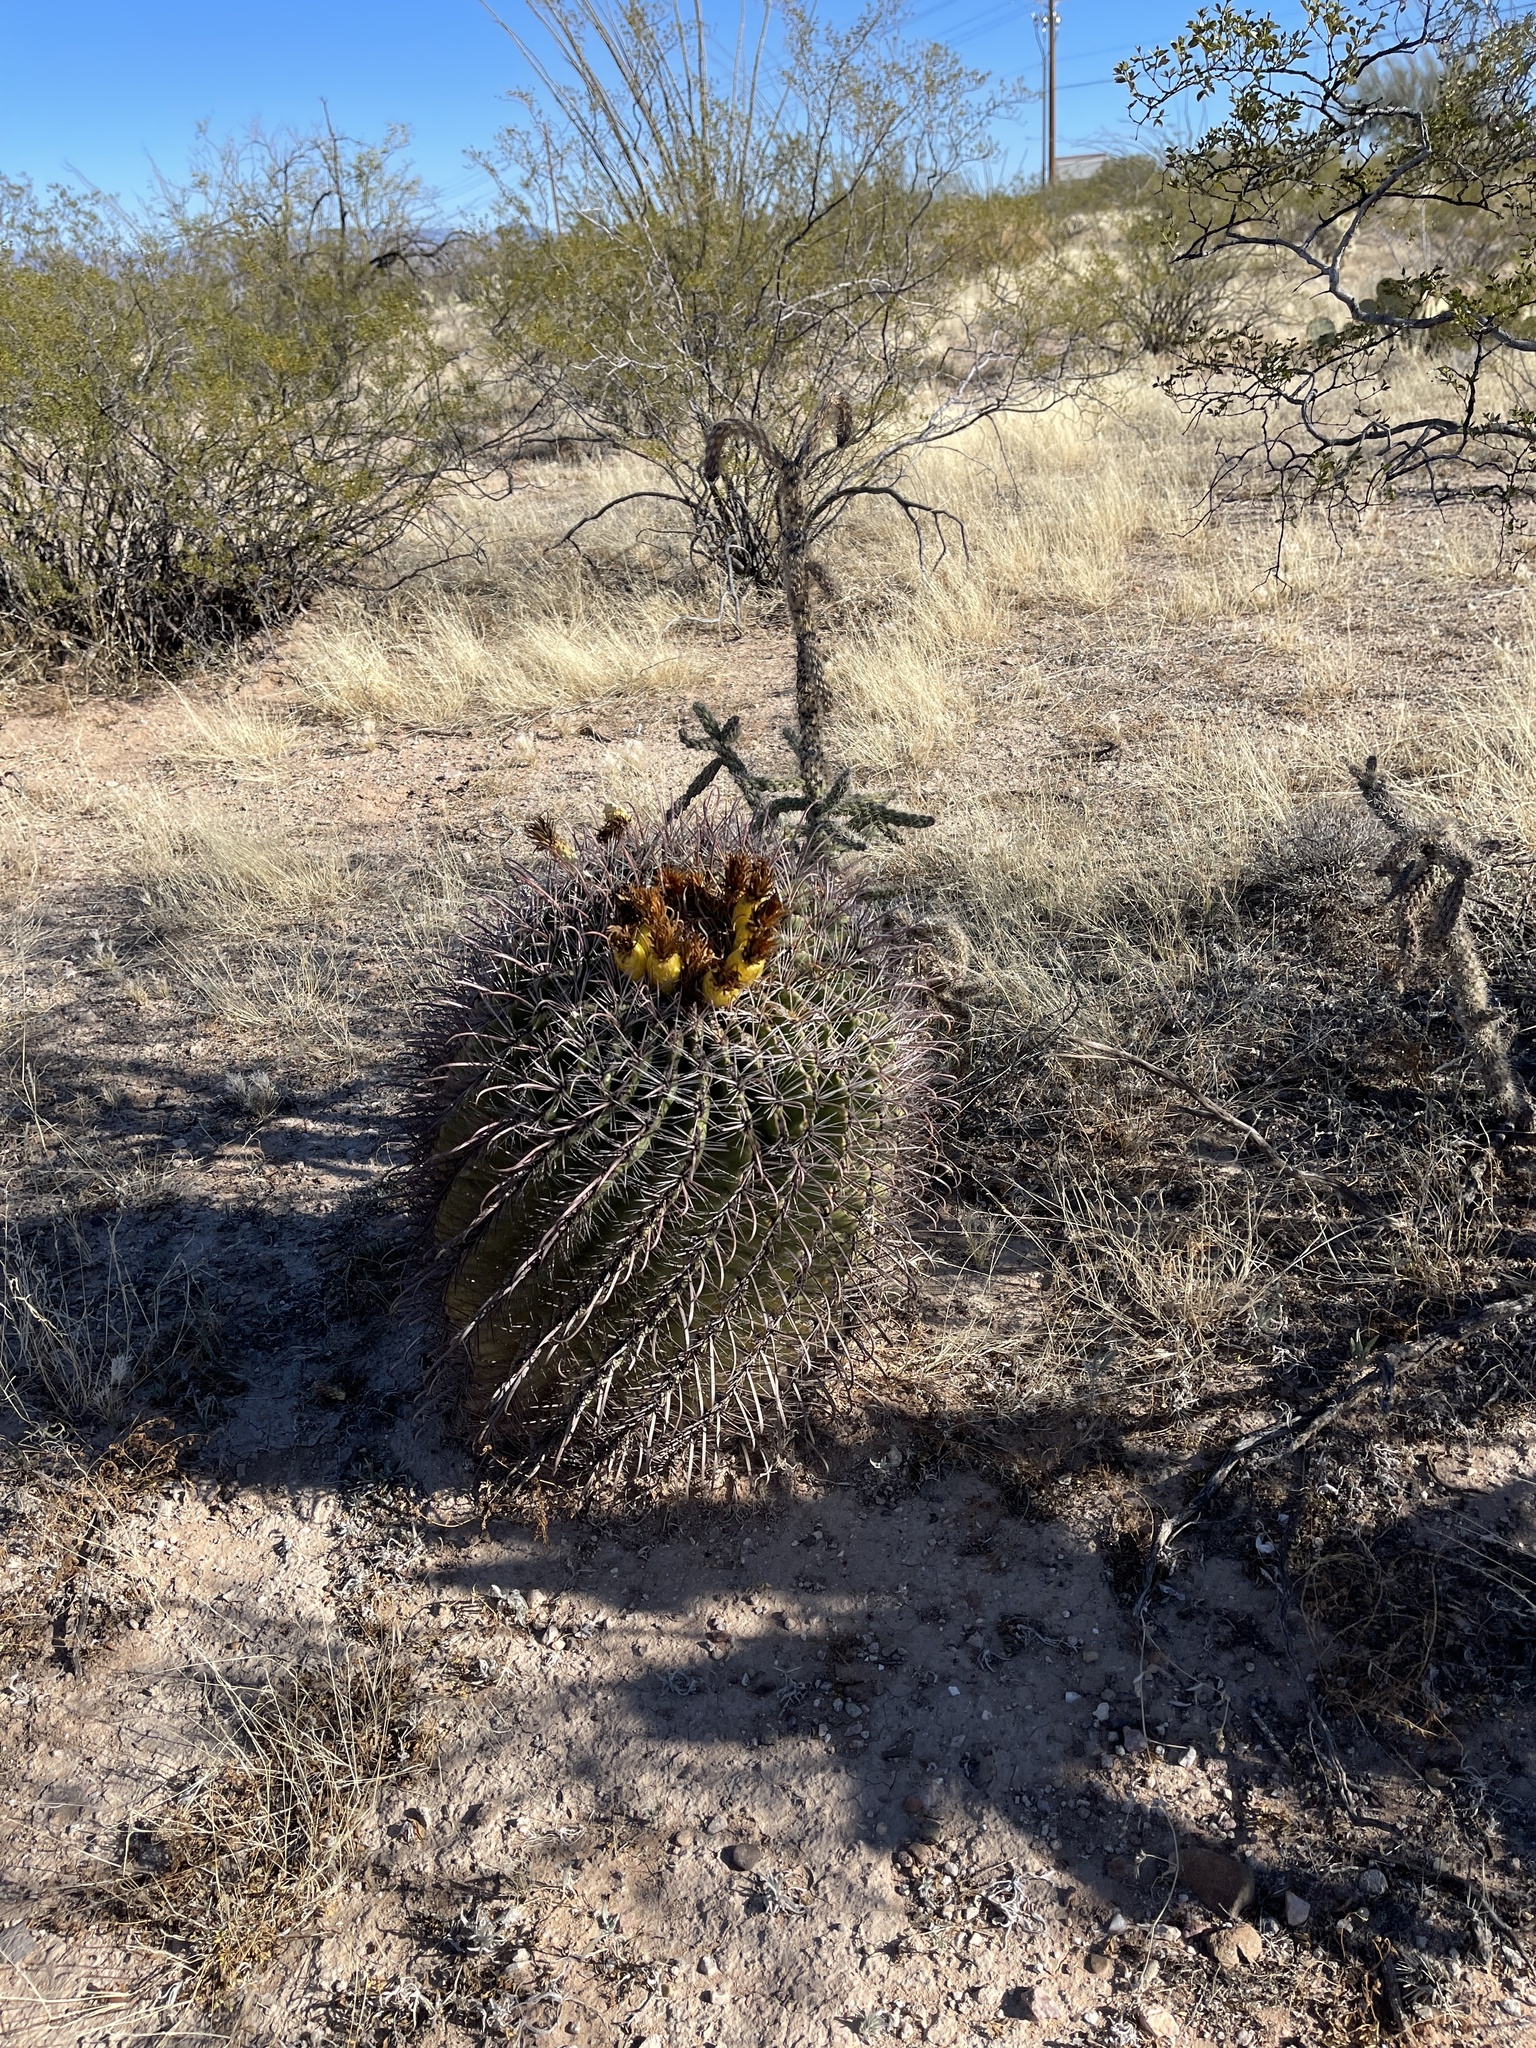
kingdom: Plantae
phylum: Tracheophyta
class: Magnoliopsida
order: Caryophyllales
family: Cactaceae
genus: Ferocactus
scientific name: Ferocactus wislizeni
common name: Candy barrel cactus
